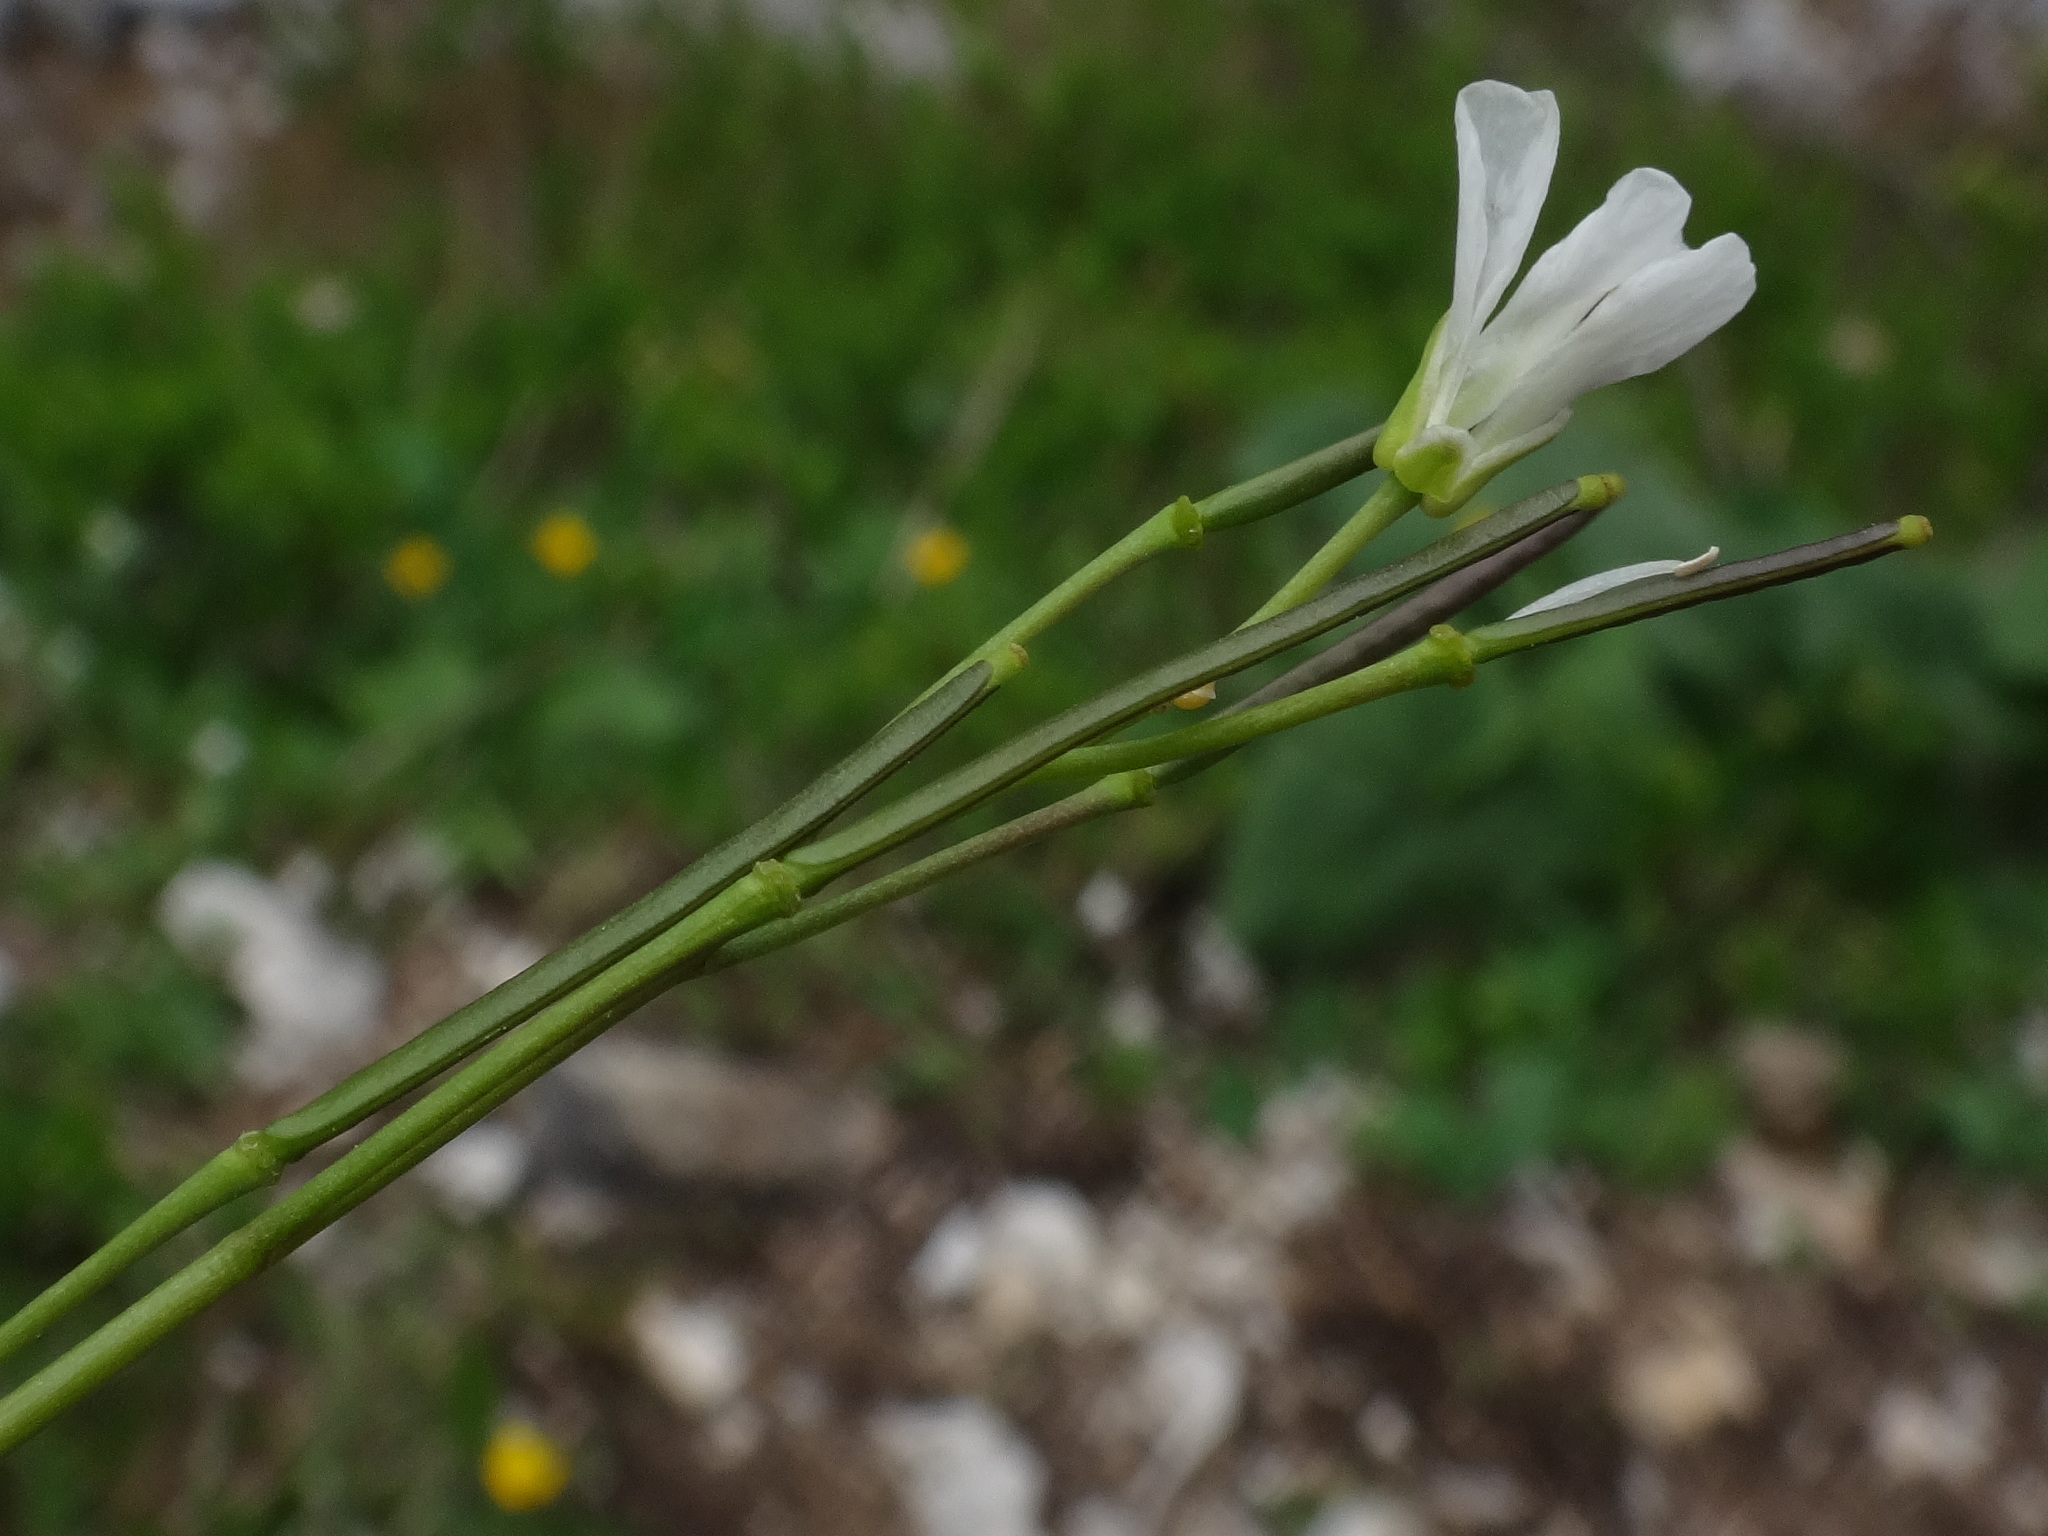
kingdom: Plantae
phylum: Tracheophyta
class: Magnoliopsida
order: Brassicales
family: Brassicaceae
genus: Arabis
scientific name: Arabis pumila
